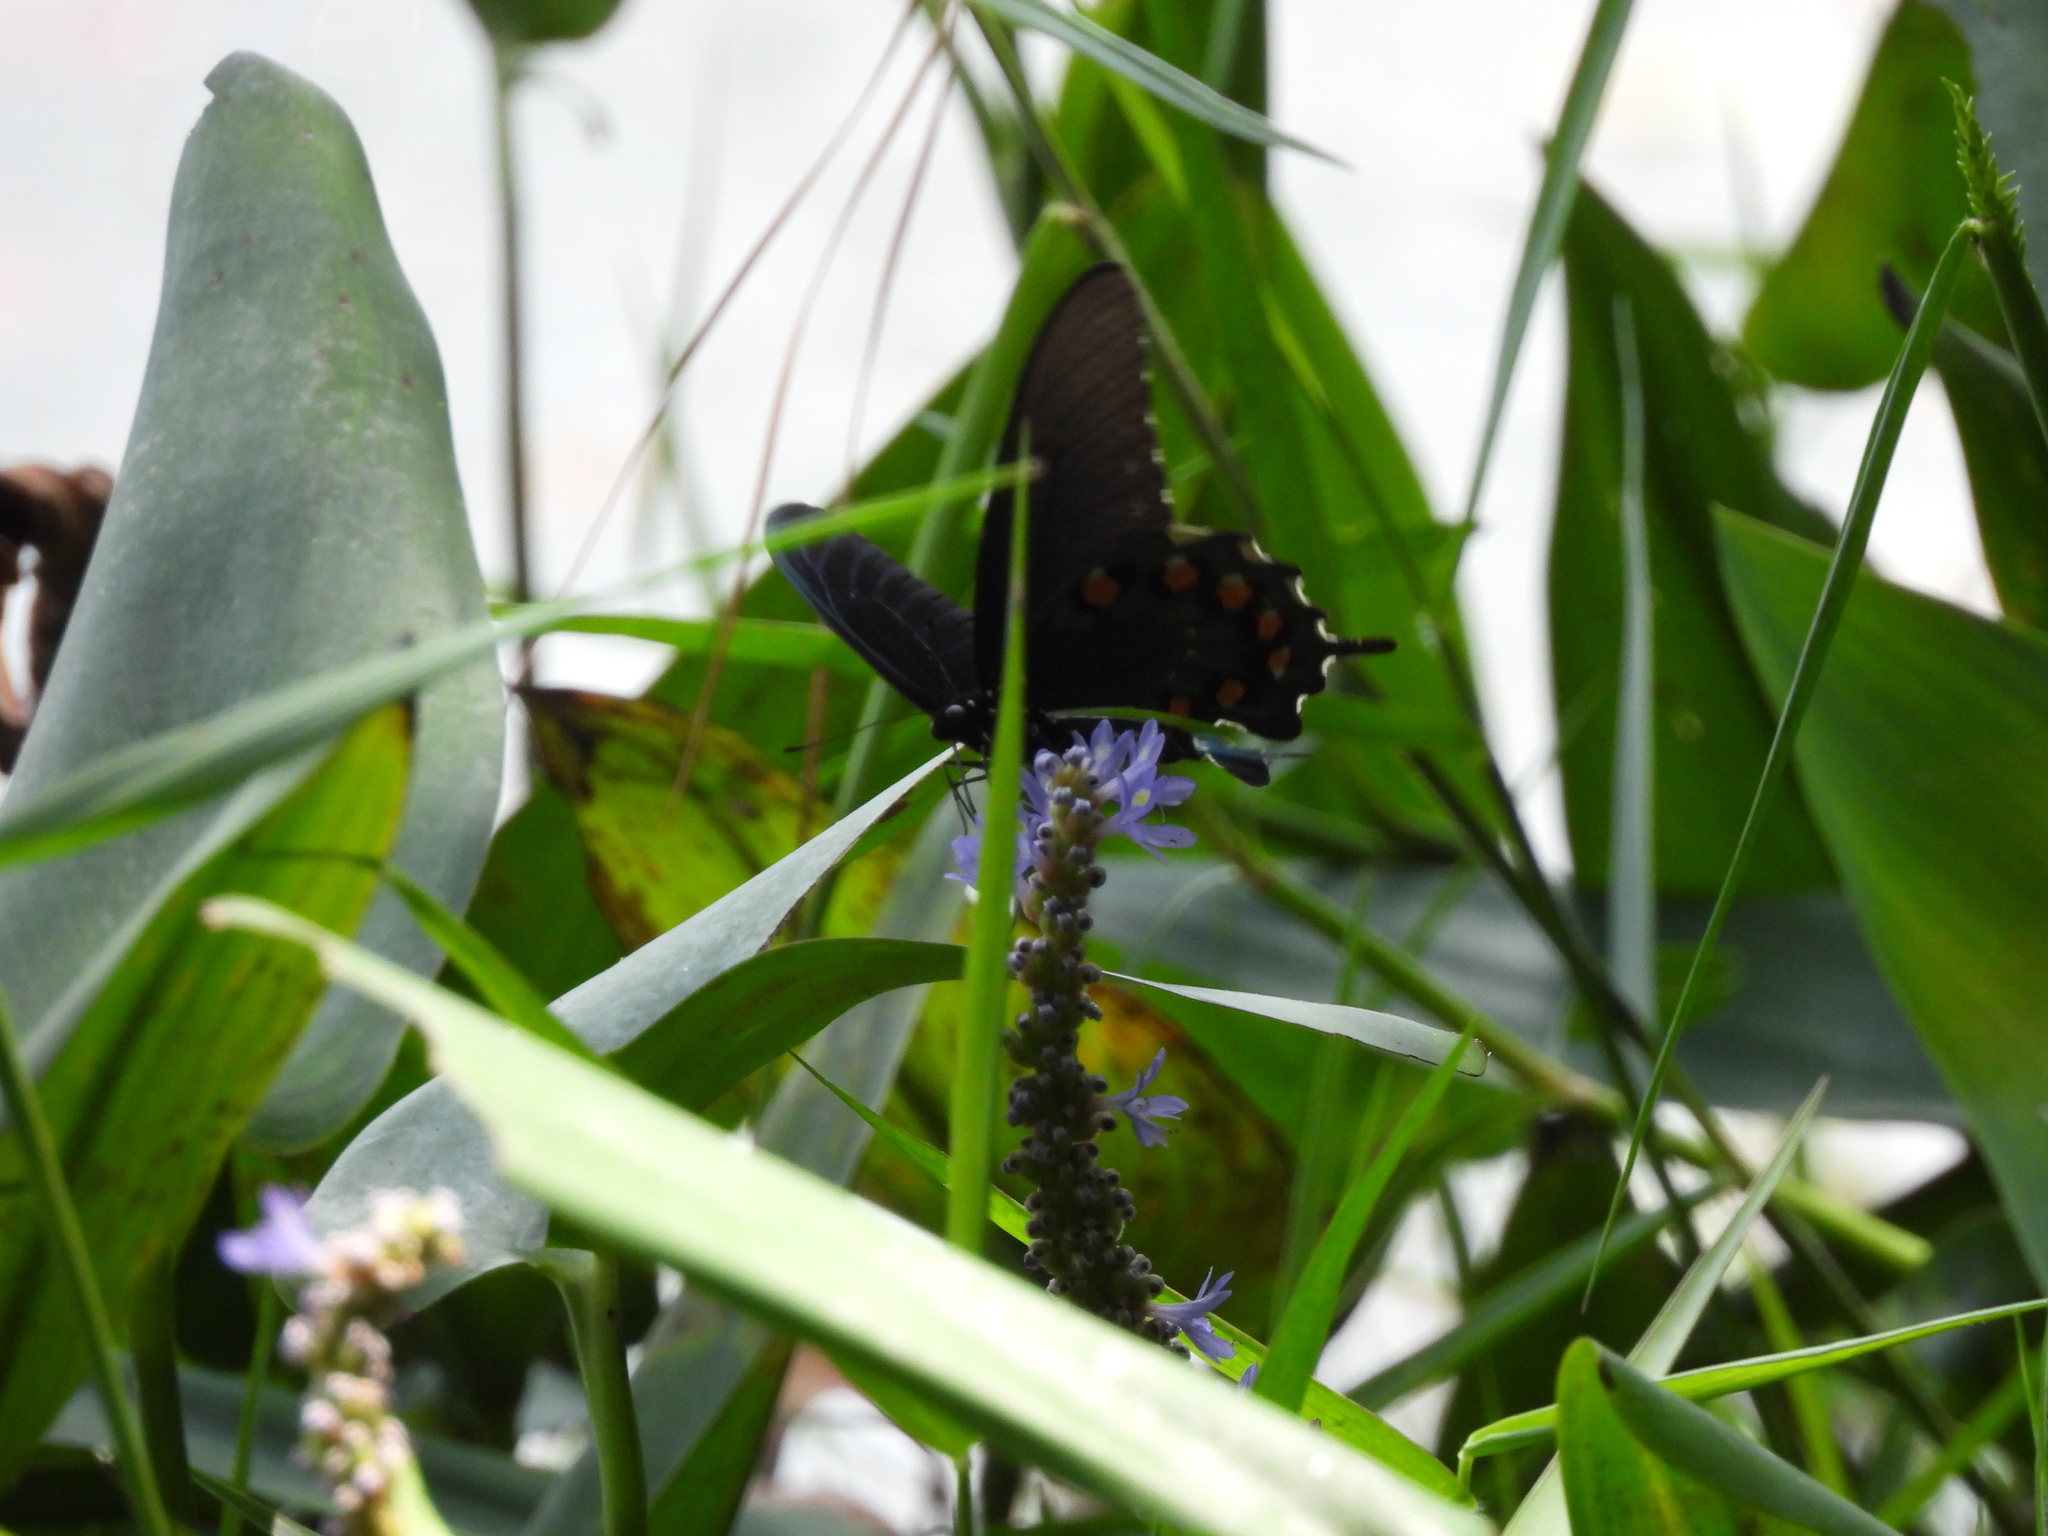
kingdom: Animalia
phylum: Arthropoda
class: Insecta
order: Lepidoptera
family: Papilionidae
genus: Battus
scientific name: Battus philenor
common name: Pipevine swallowtail
